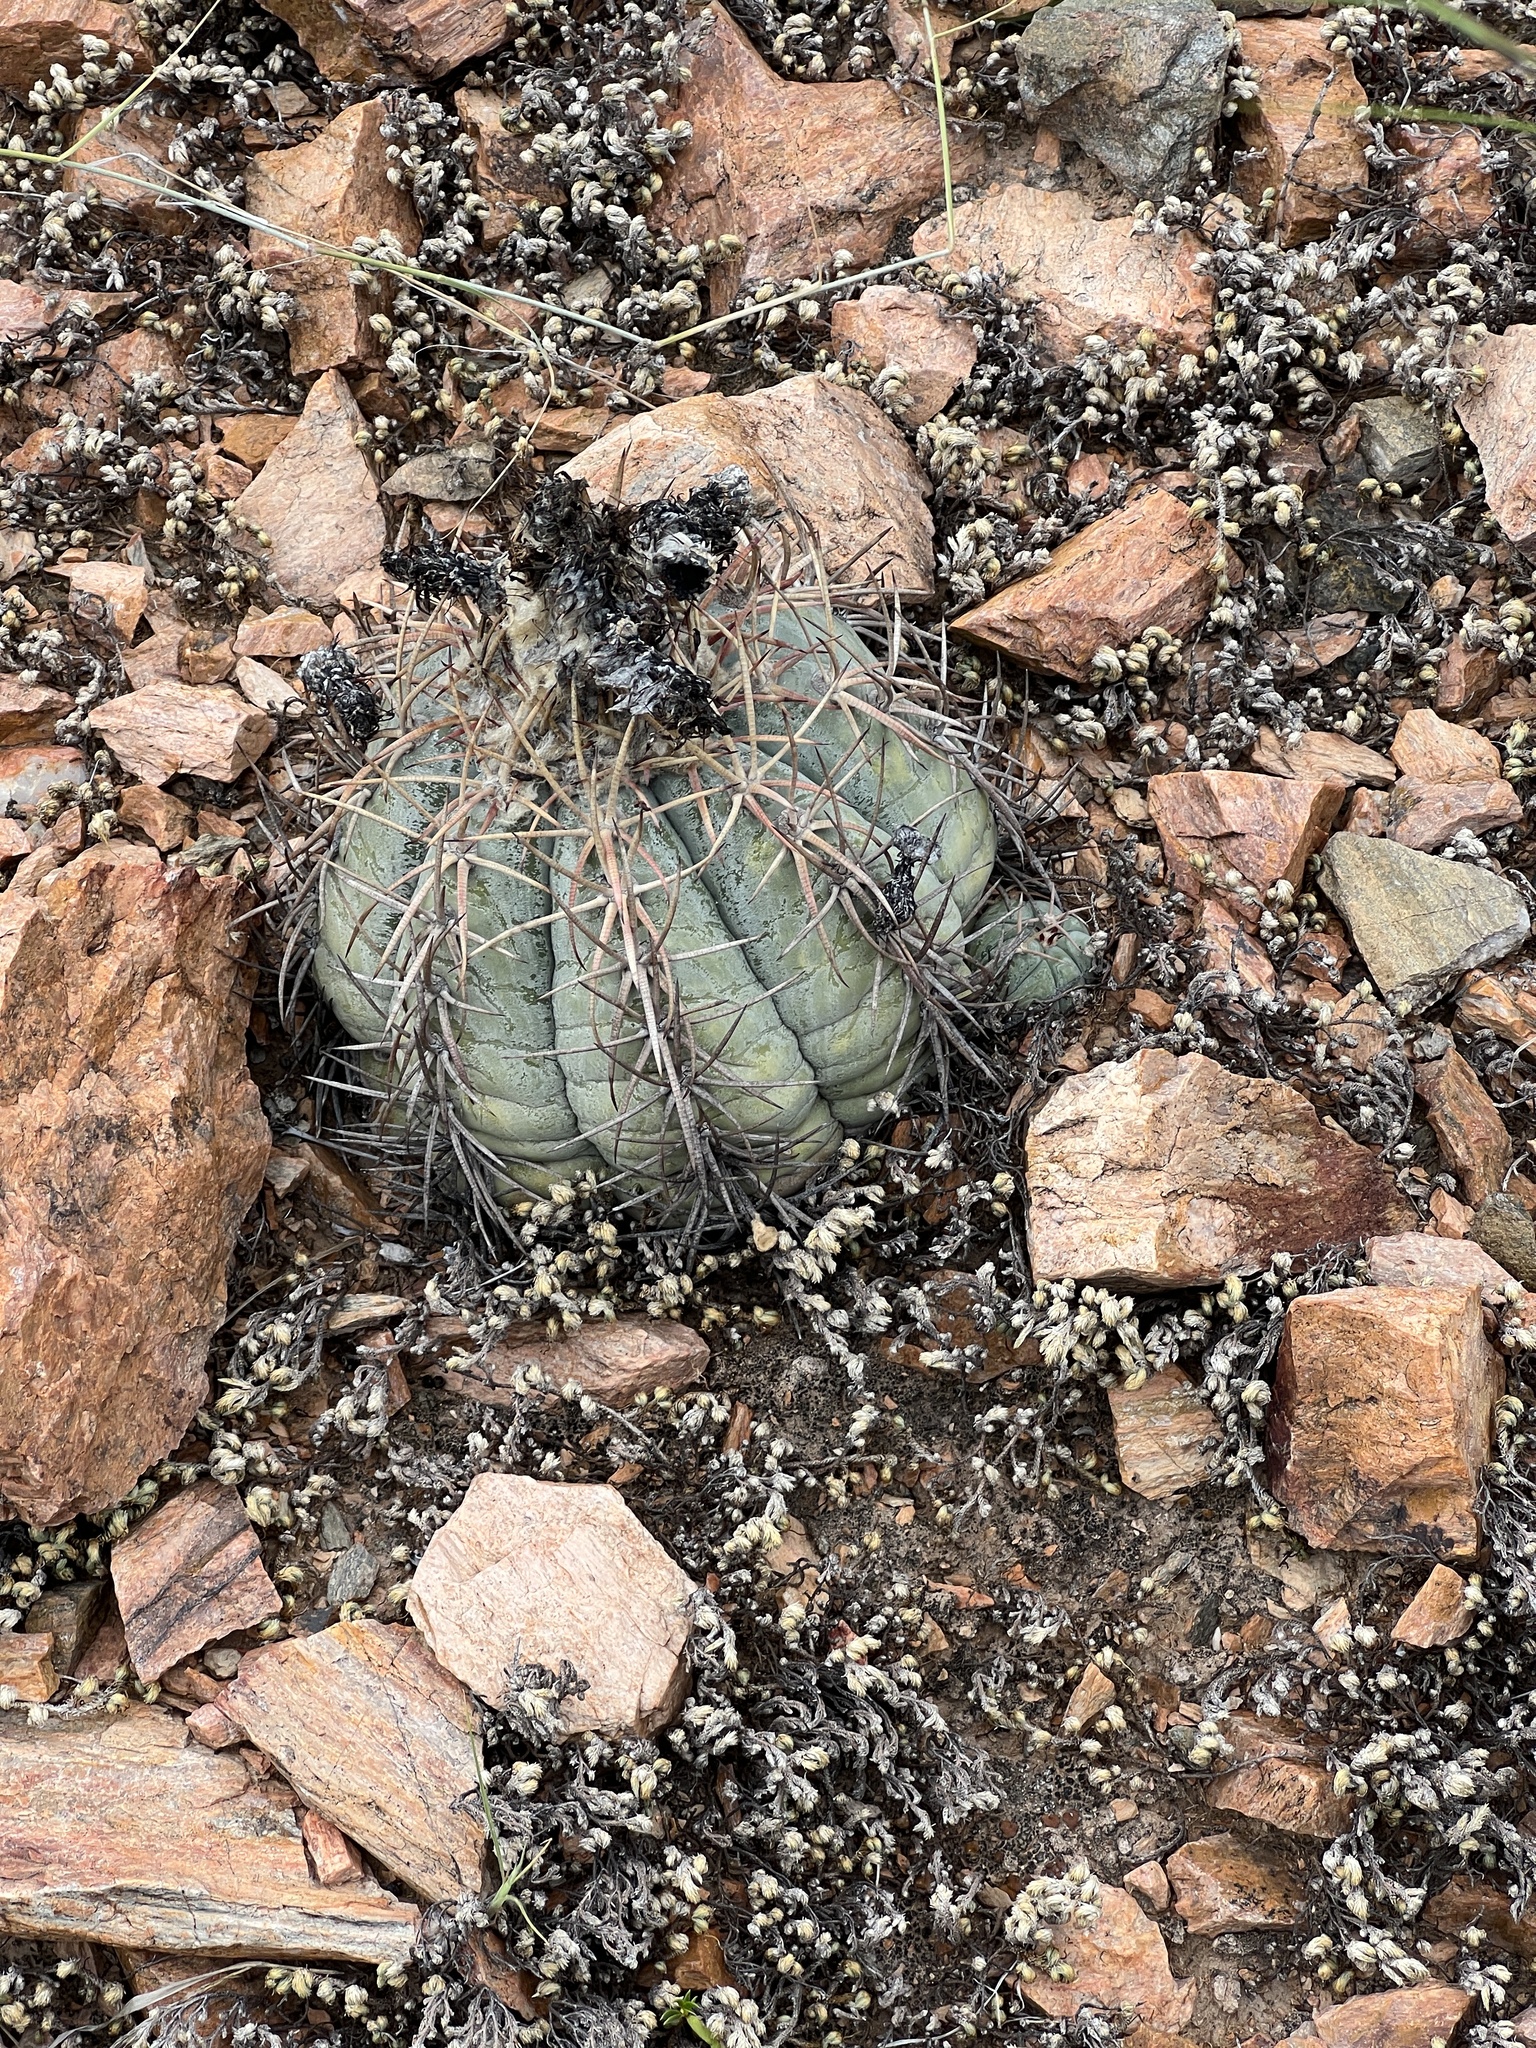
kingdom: Plantae
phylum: Tracheophyta
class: Magnoliopsida
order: Caryophyllales
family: Cactaceae
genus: Echinocactus
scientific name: Echinocactus horizonthalonius
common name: Devilshead
